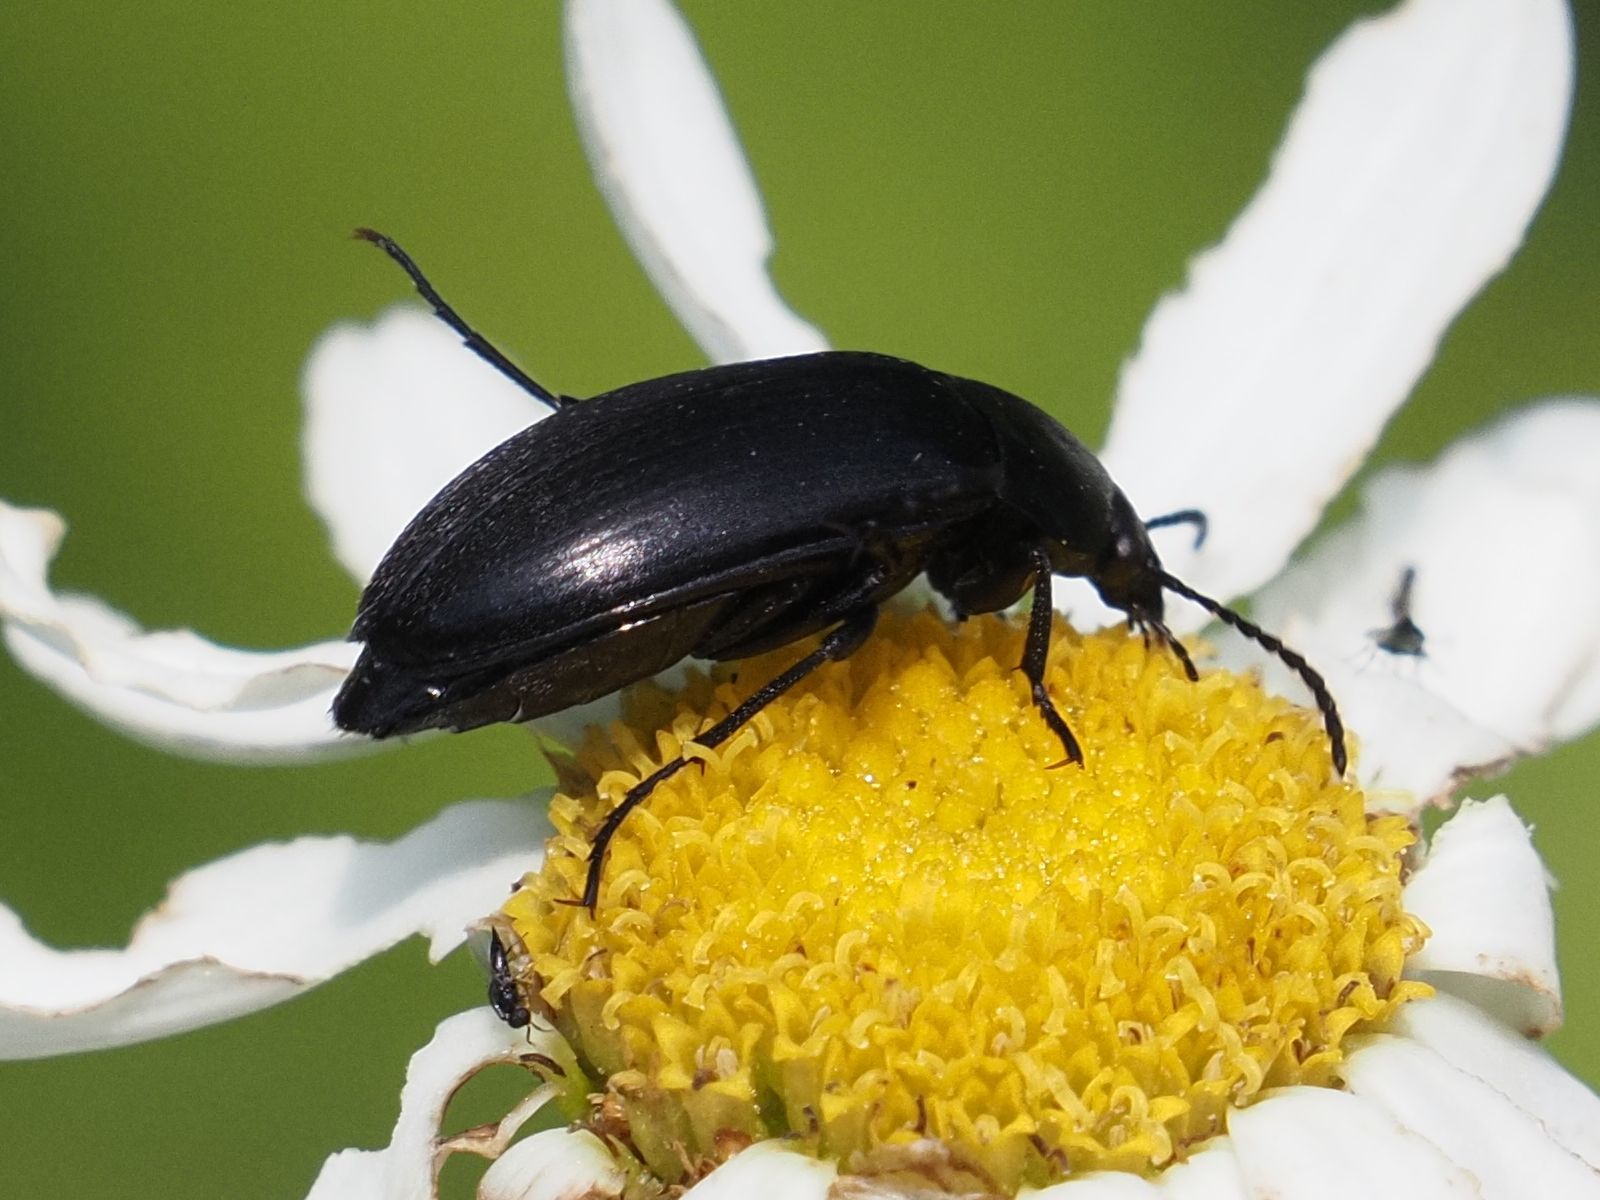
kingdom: Animalia
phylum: Arthropoda
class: Insecta
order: Coleoptera
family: Tenebrionidae
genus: Podonta
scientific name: Podonta nigrita
